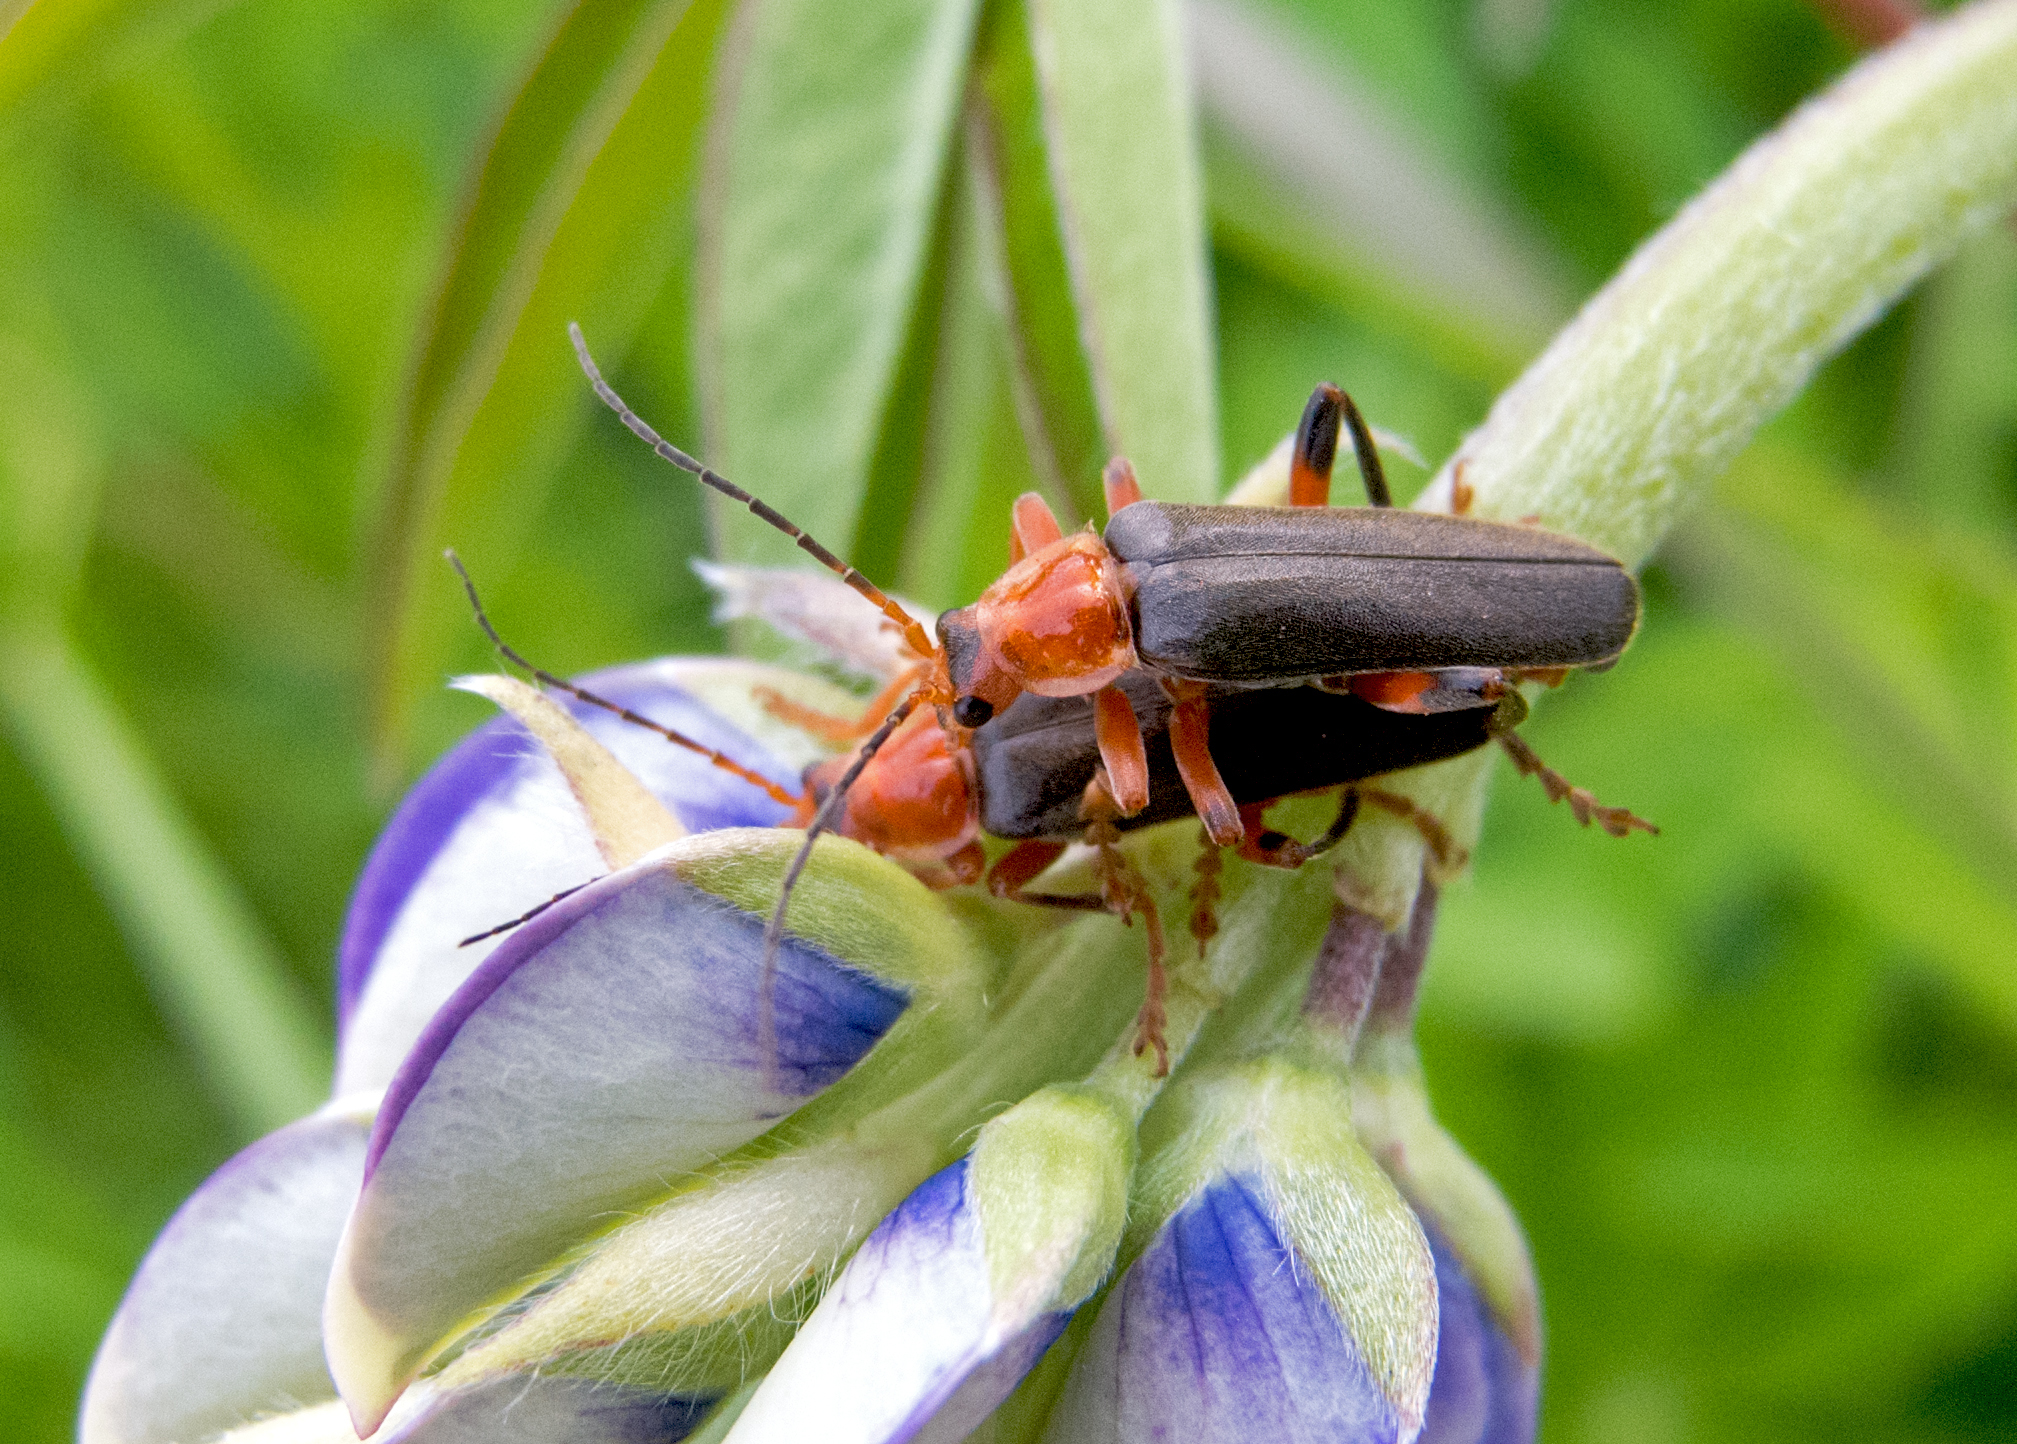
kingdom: Animalia
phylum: Arthropoda
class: Insecta
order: Coleoptera
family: Cantharidae
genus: Cantharis
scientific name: Cantharis livida
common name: Livid soldier beetle
